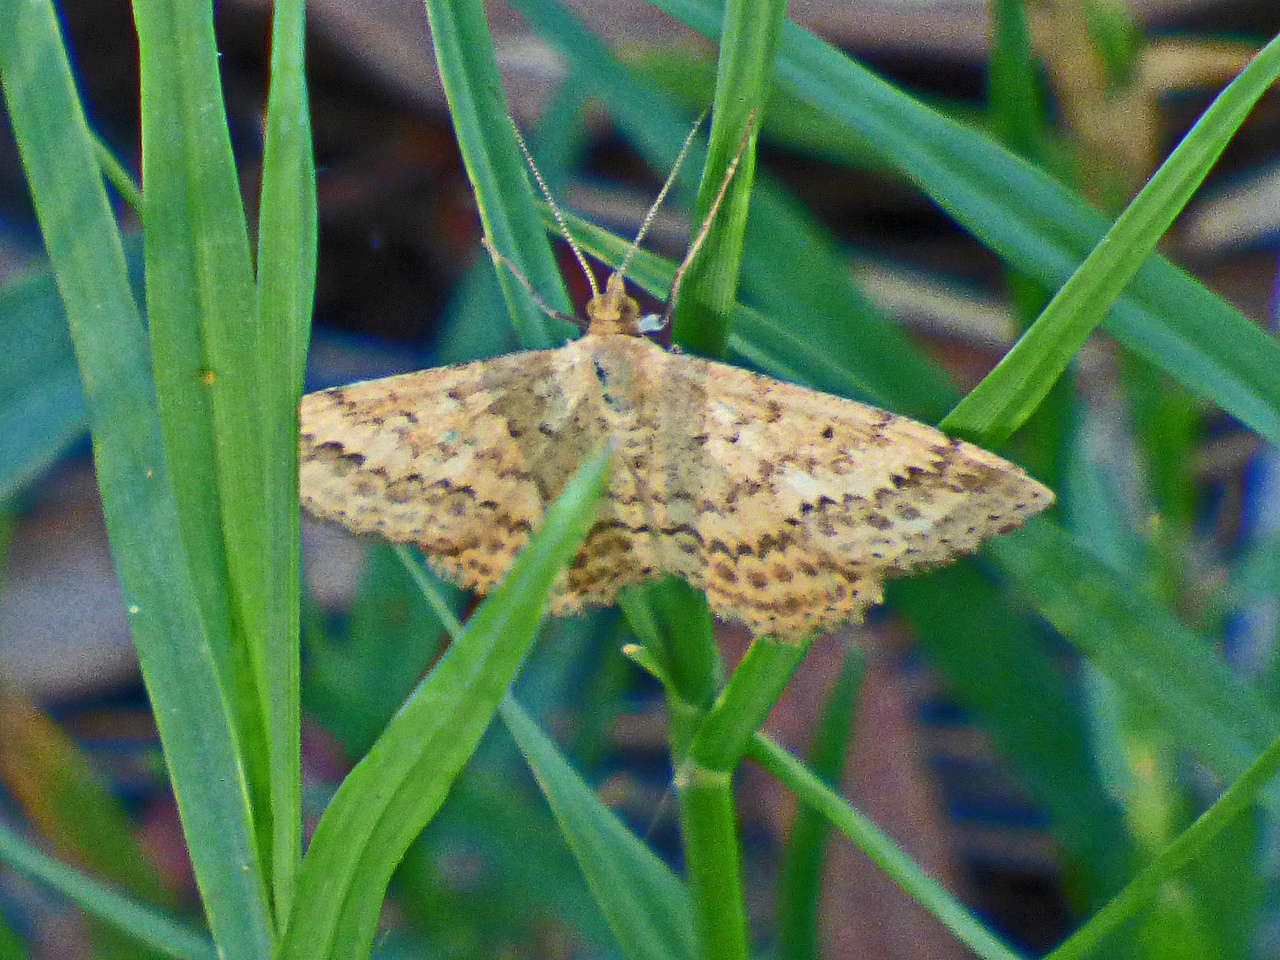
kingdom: Animalia
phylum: Arthropoda
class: Insecta
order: Lepidoptera
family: Geometridae
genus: Scopula
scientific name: Scopula rubraria
